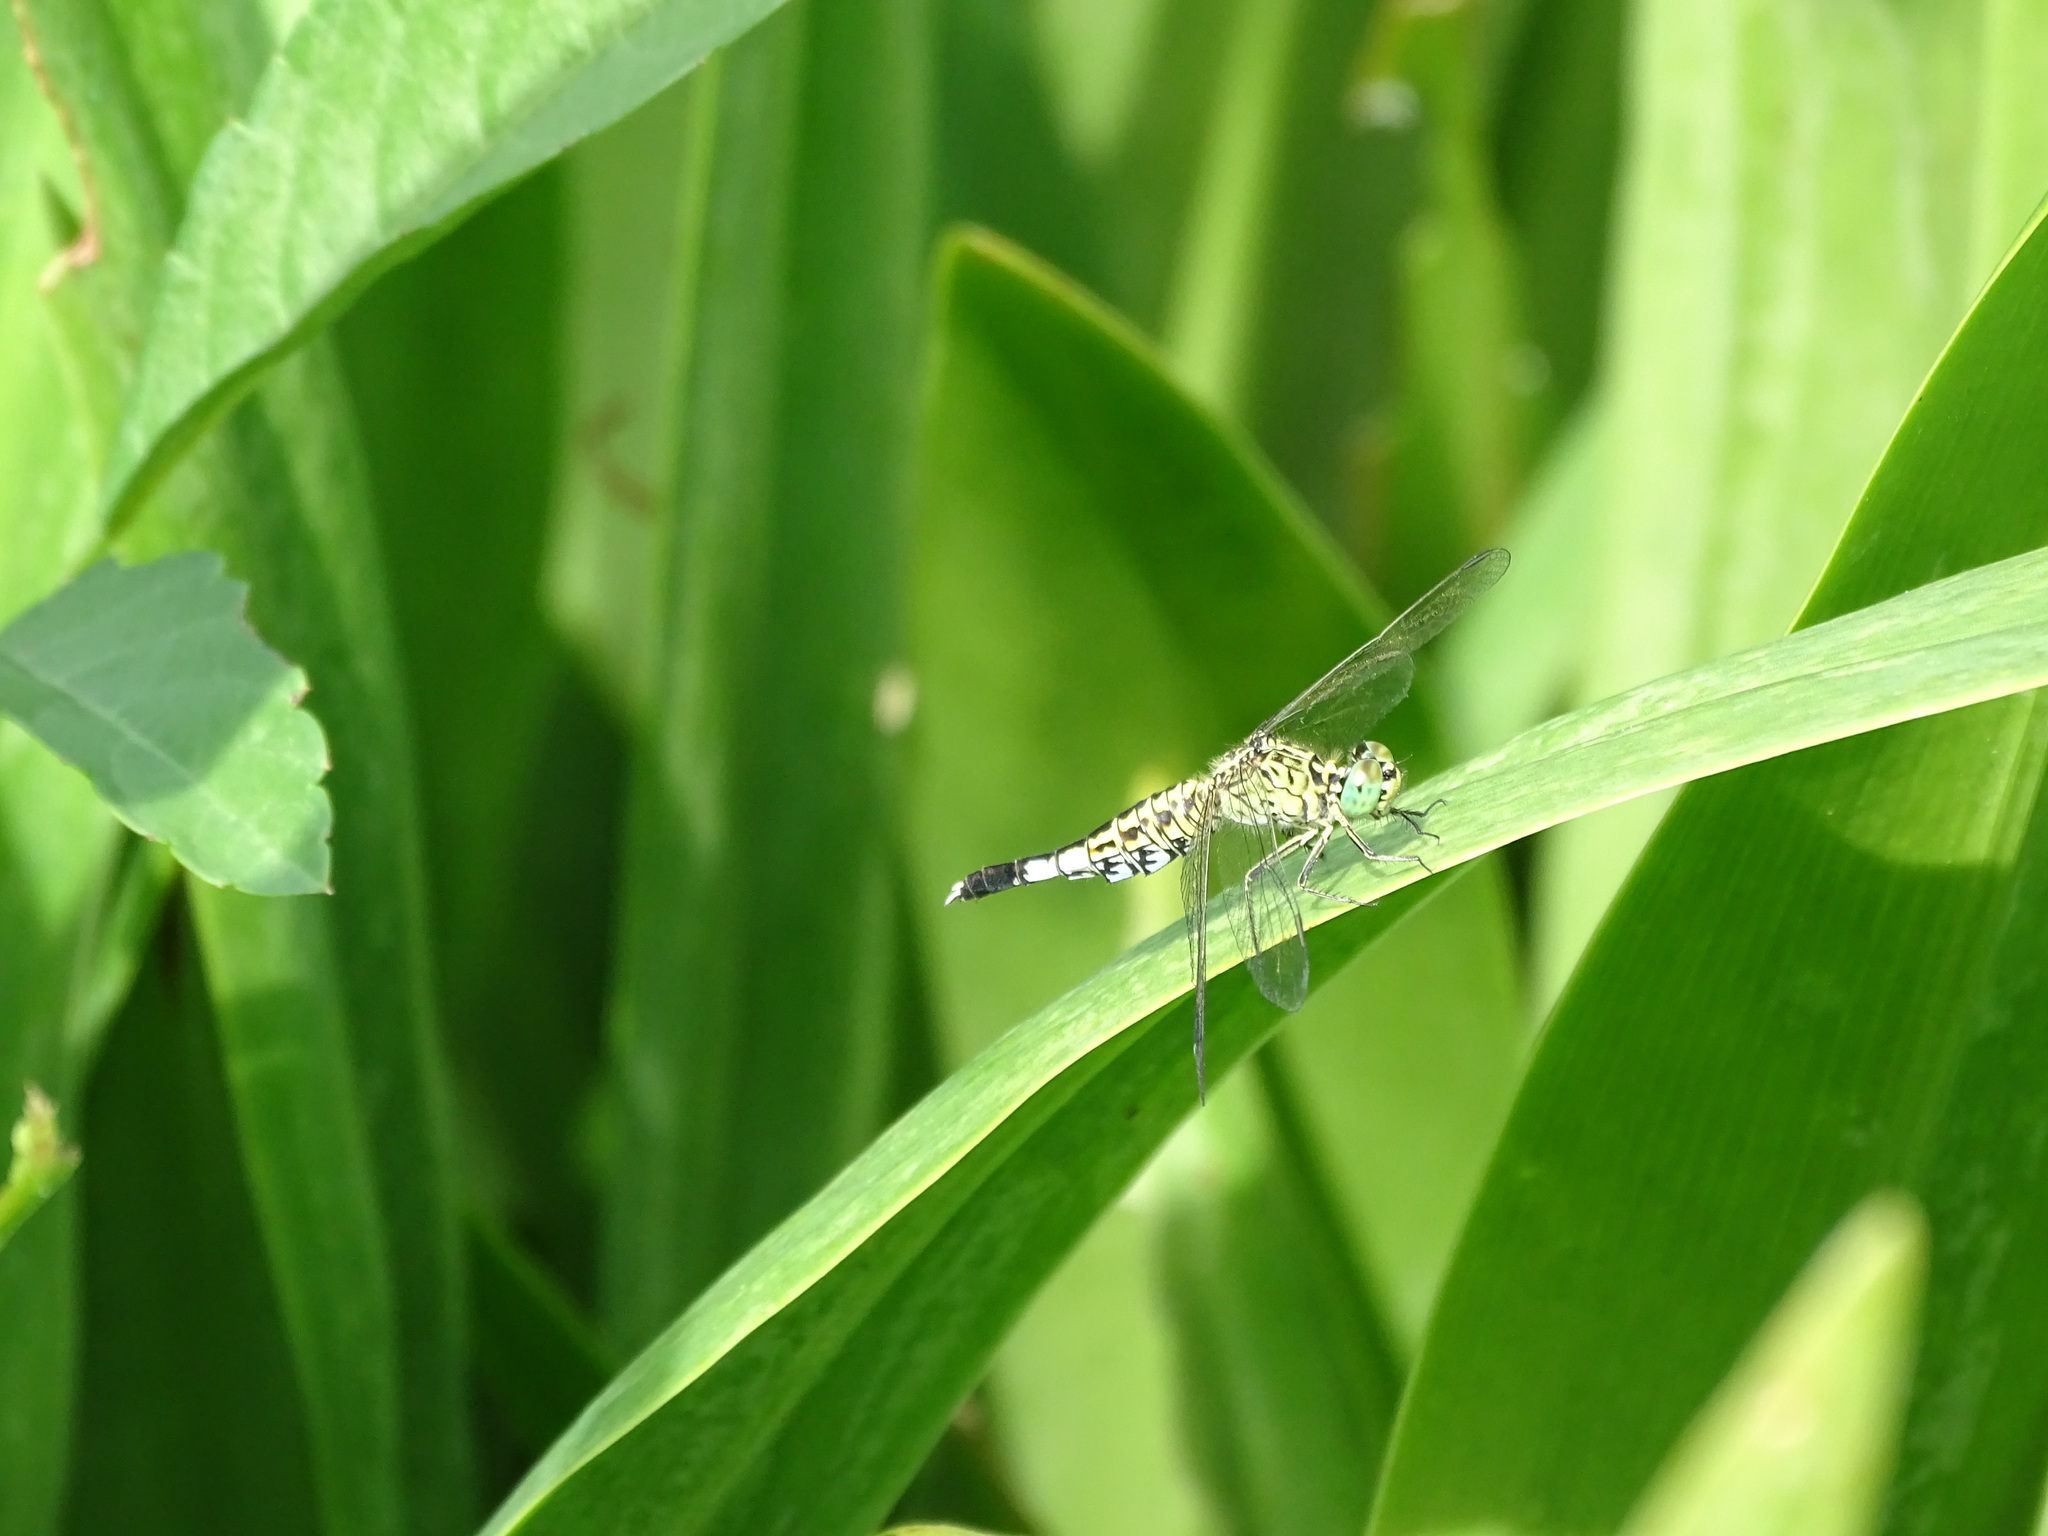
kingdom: Animalia
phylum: Arthropoda
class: Insecta
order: Odonata
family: Libellulidae
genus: Acisoma
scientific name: Acisoma panorpoides
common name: Asian pintail
